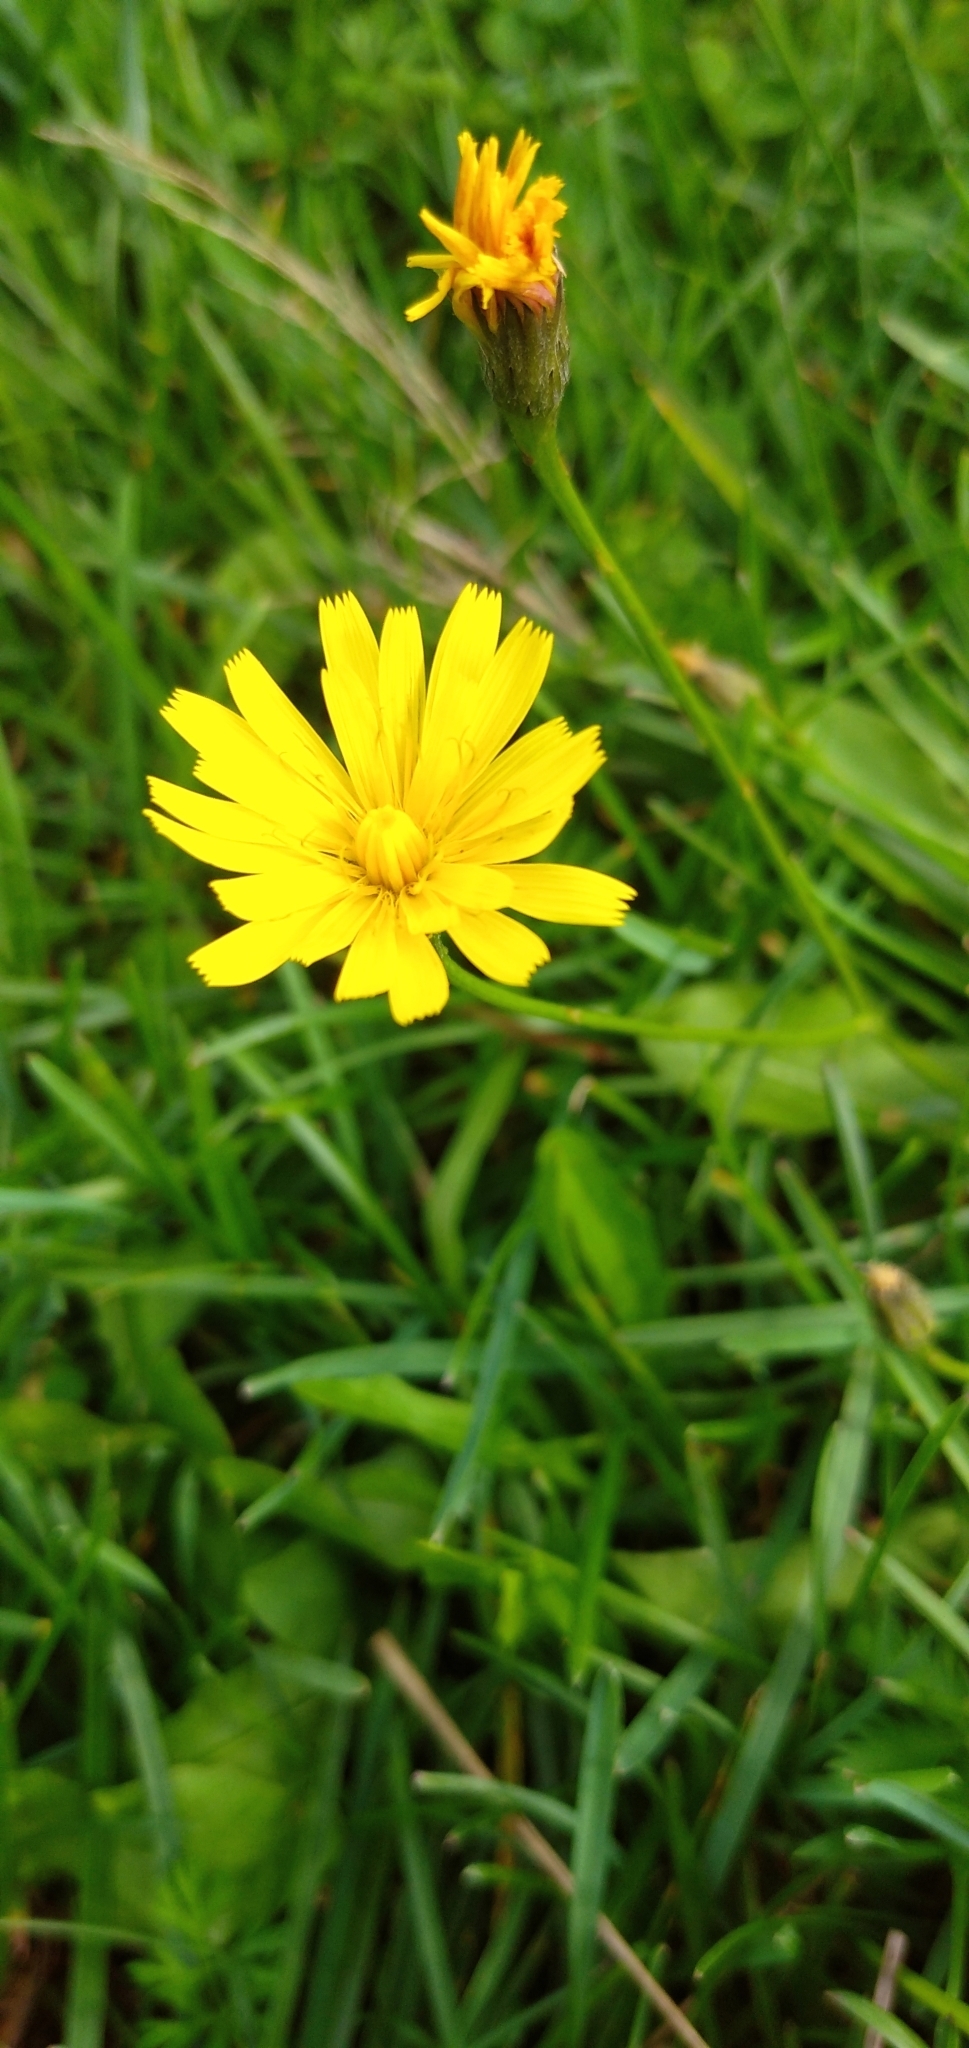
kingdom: Plantae
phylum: Tracheophyta
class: Magnoliopsida
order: Asterales
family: Asteraceae
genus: Scorzoneroides
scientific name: Scorzoneroides autumnalis
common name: Autumn hawkbit
